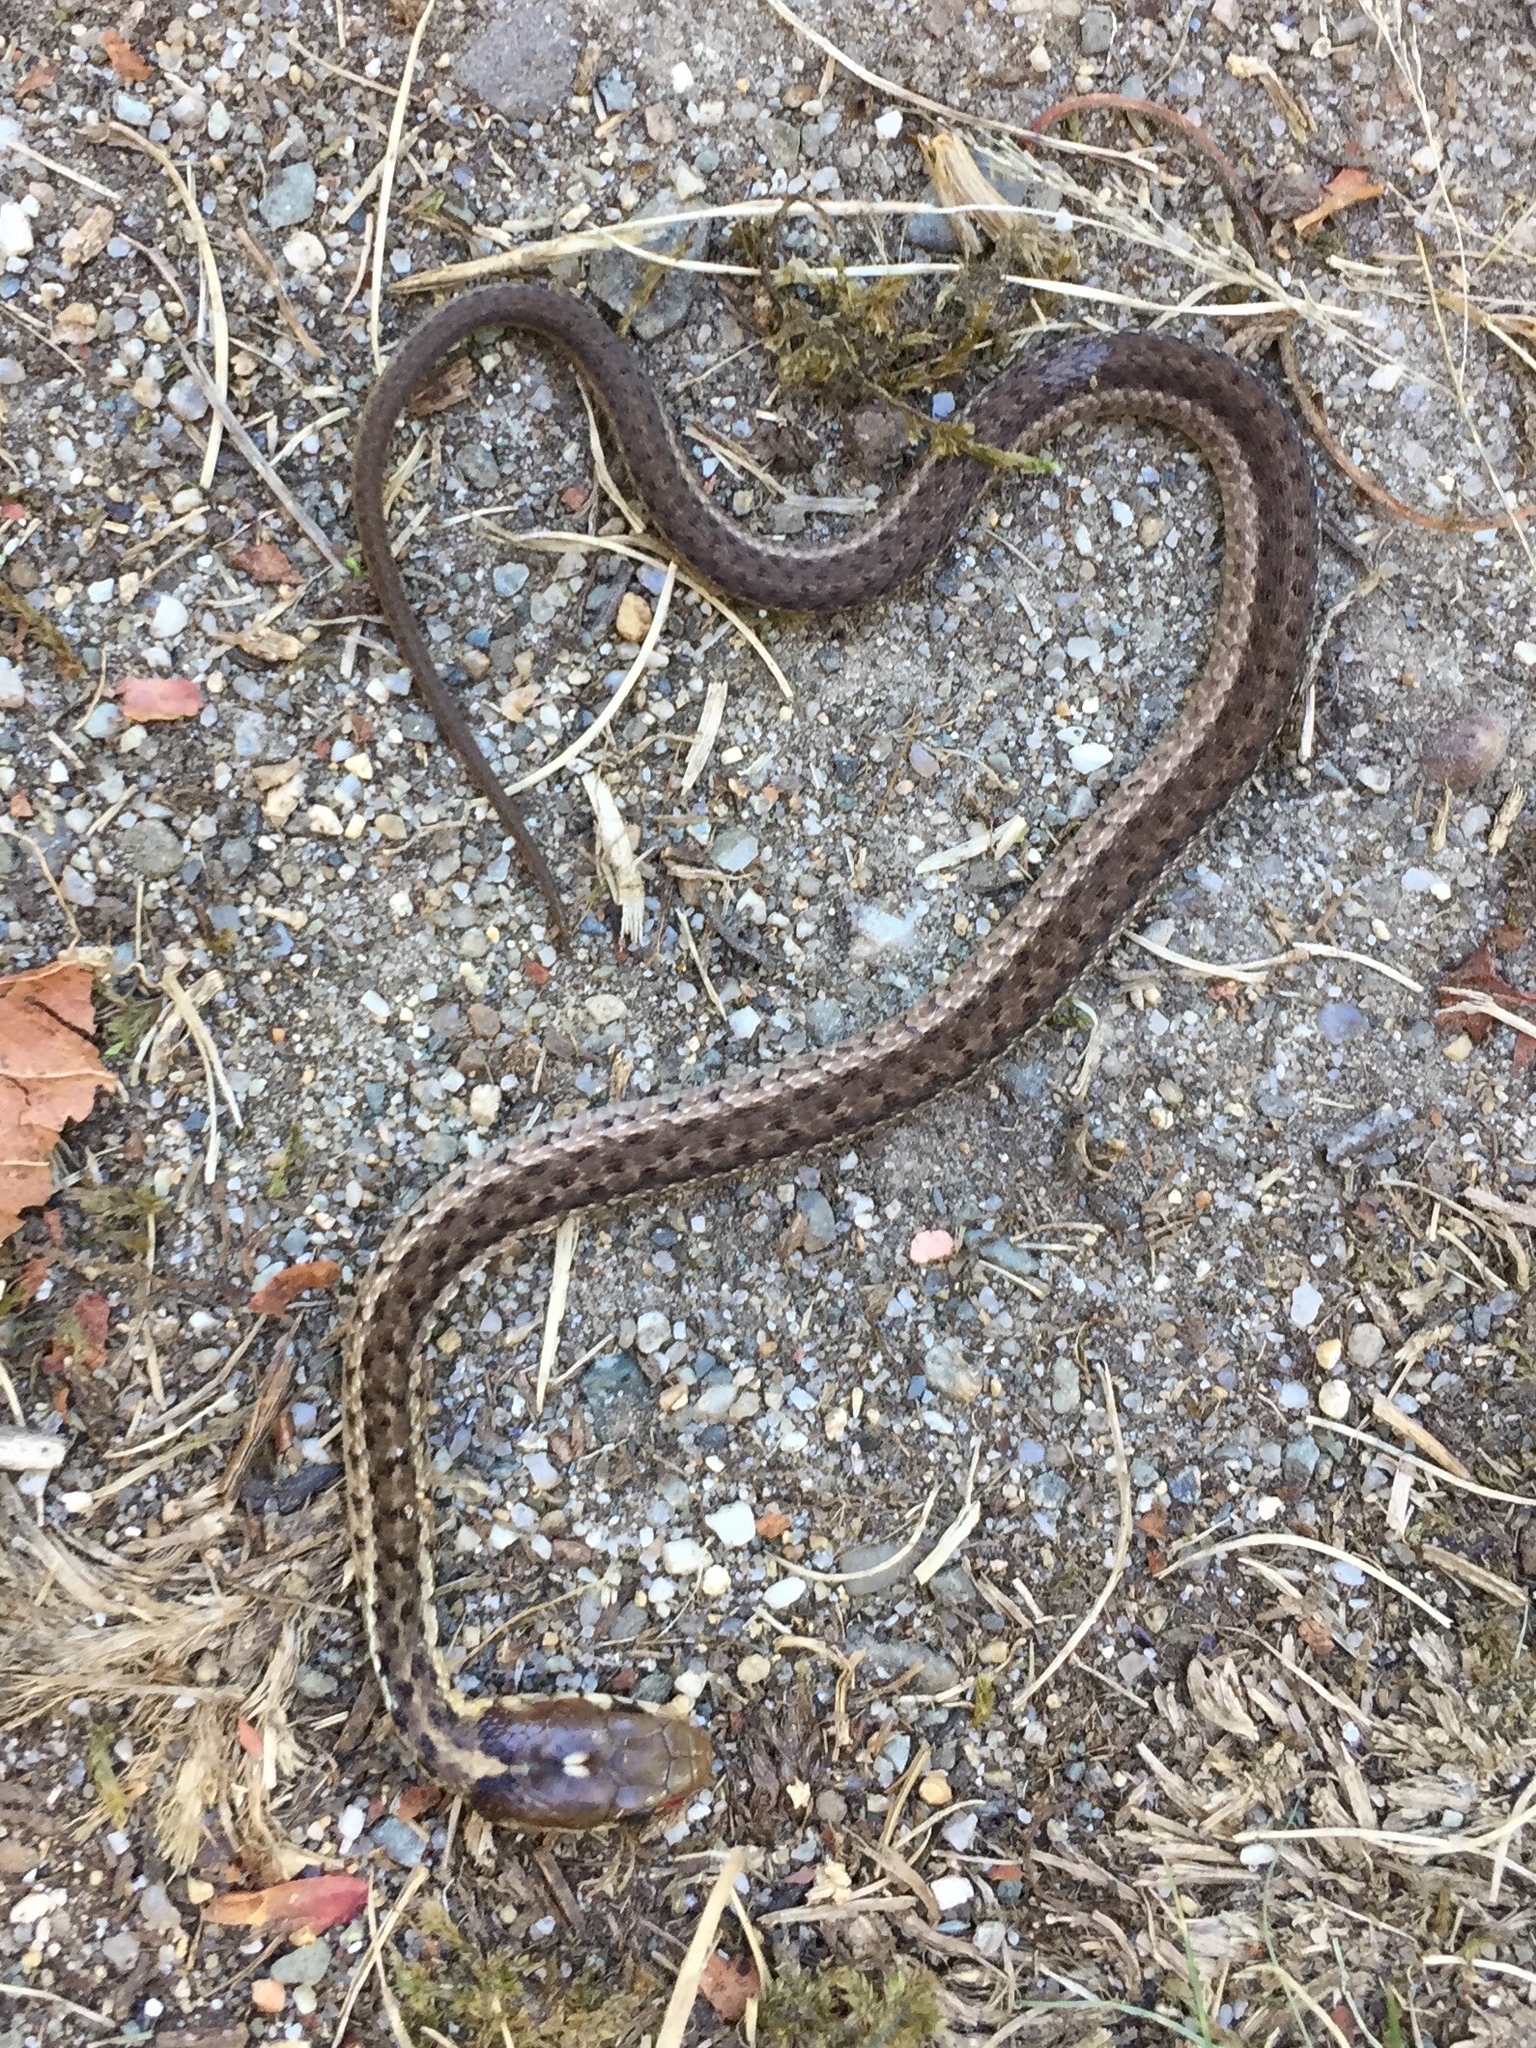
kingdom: Animalia
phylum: Chordata
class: Squamata
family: Colubridae
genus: Thamnophis
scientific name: Thamnophis sirtalis
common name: Common garter snake
